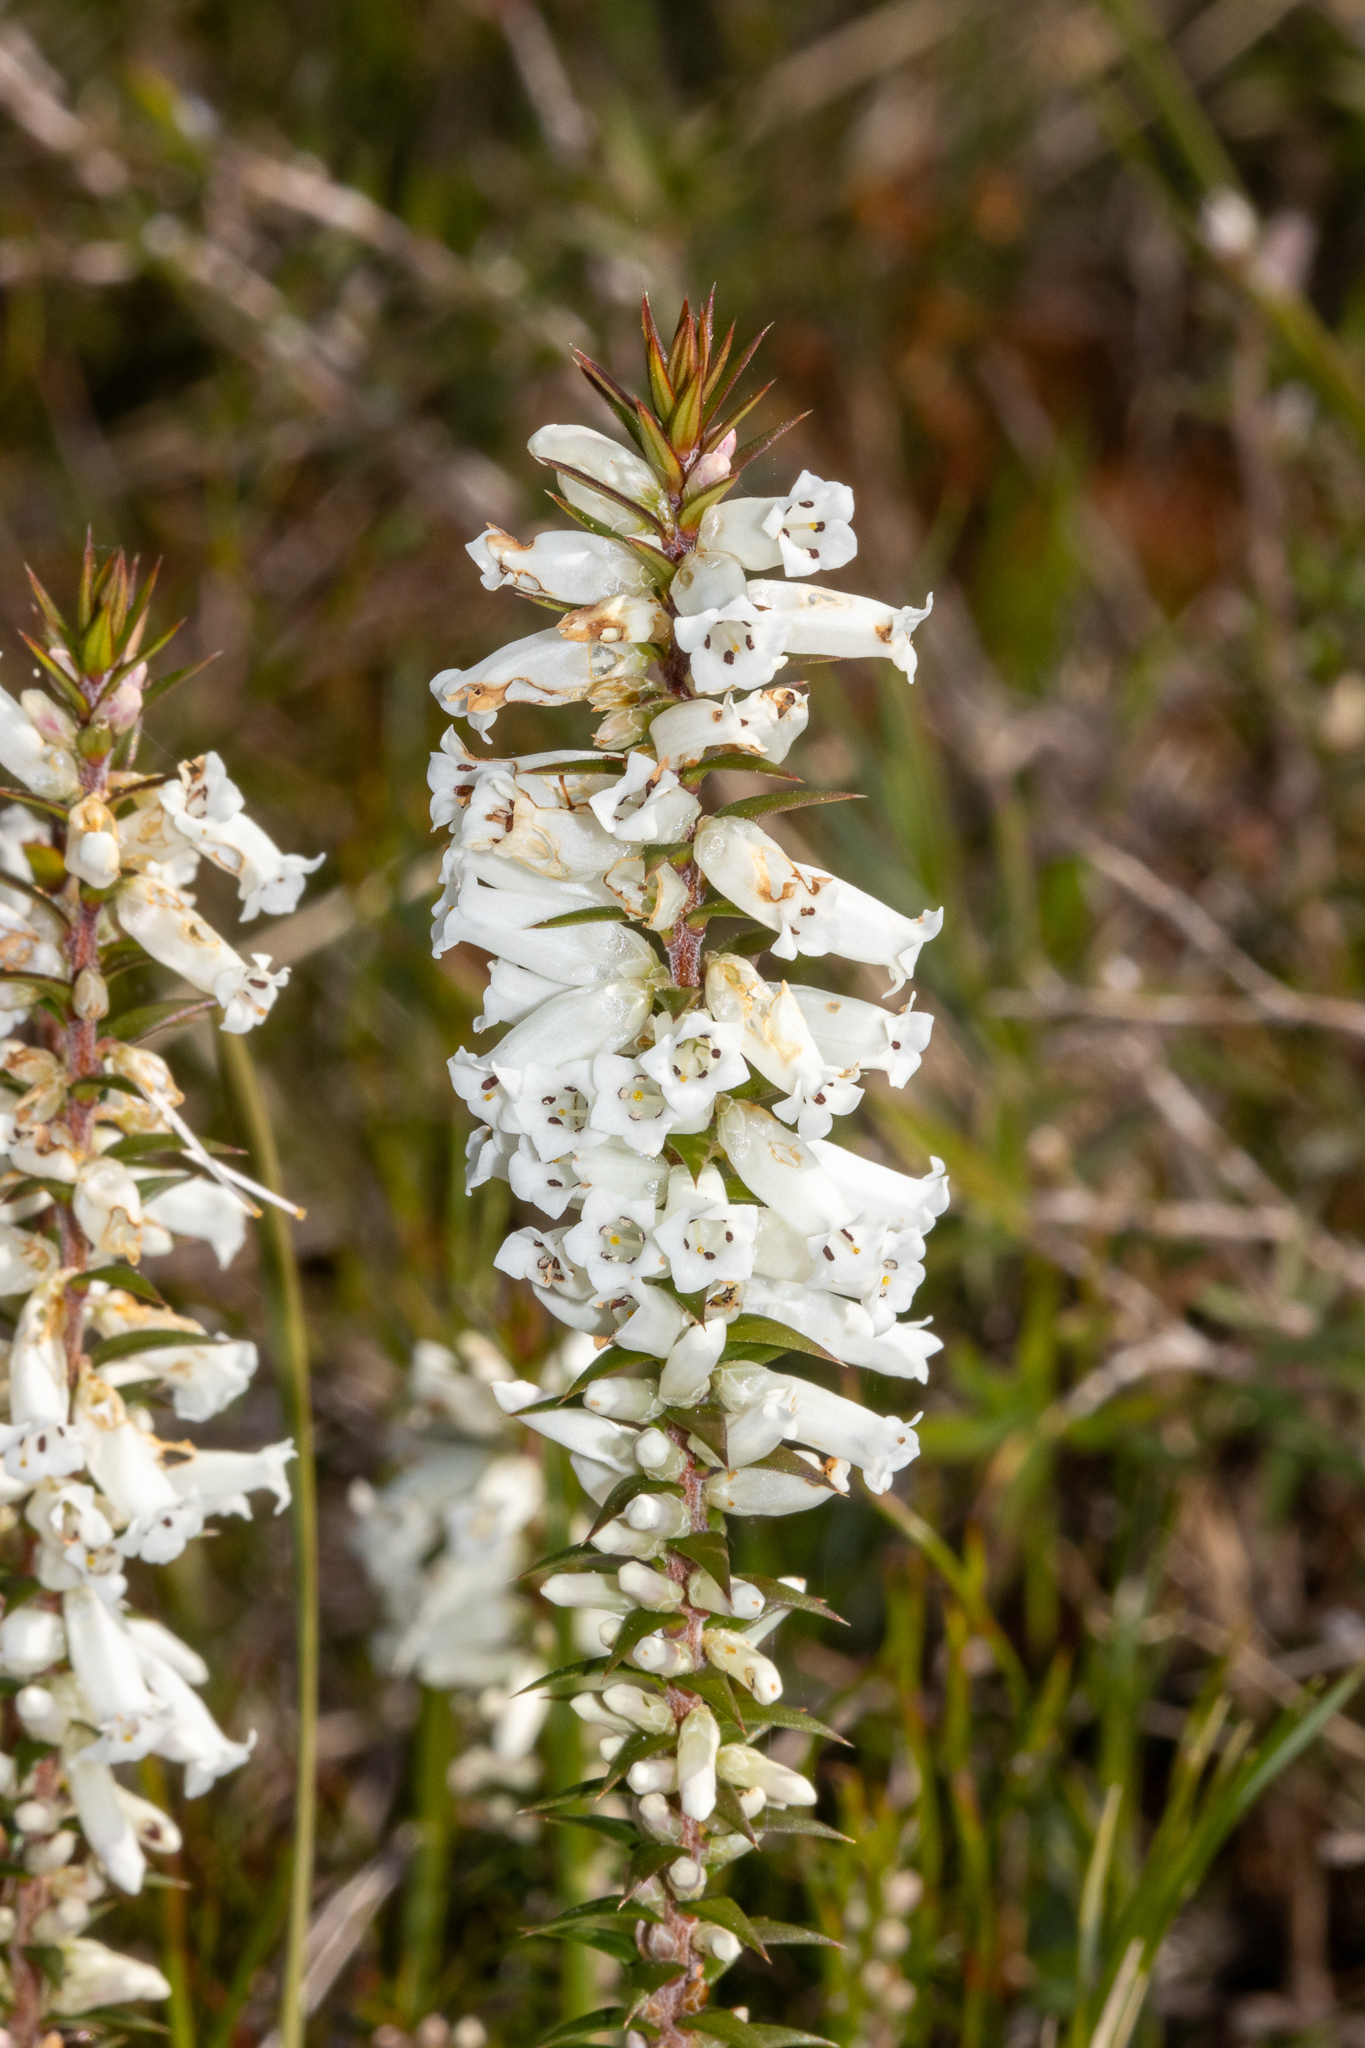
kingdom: Plantae
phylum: Tracheophyta
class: Magnoliopsida
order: Ericales
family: Ericaceae
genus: Epacris
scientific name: Epacris impressa
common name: Common-heath
